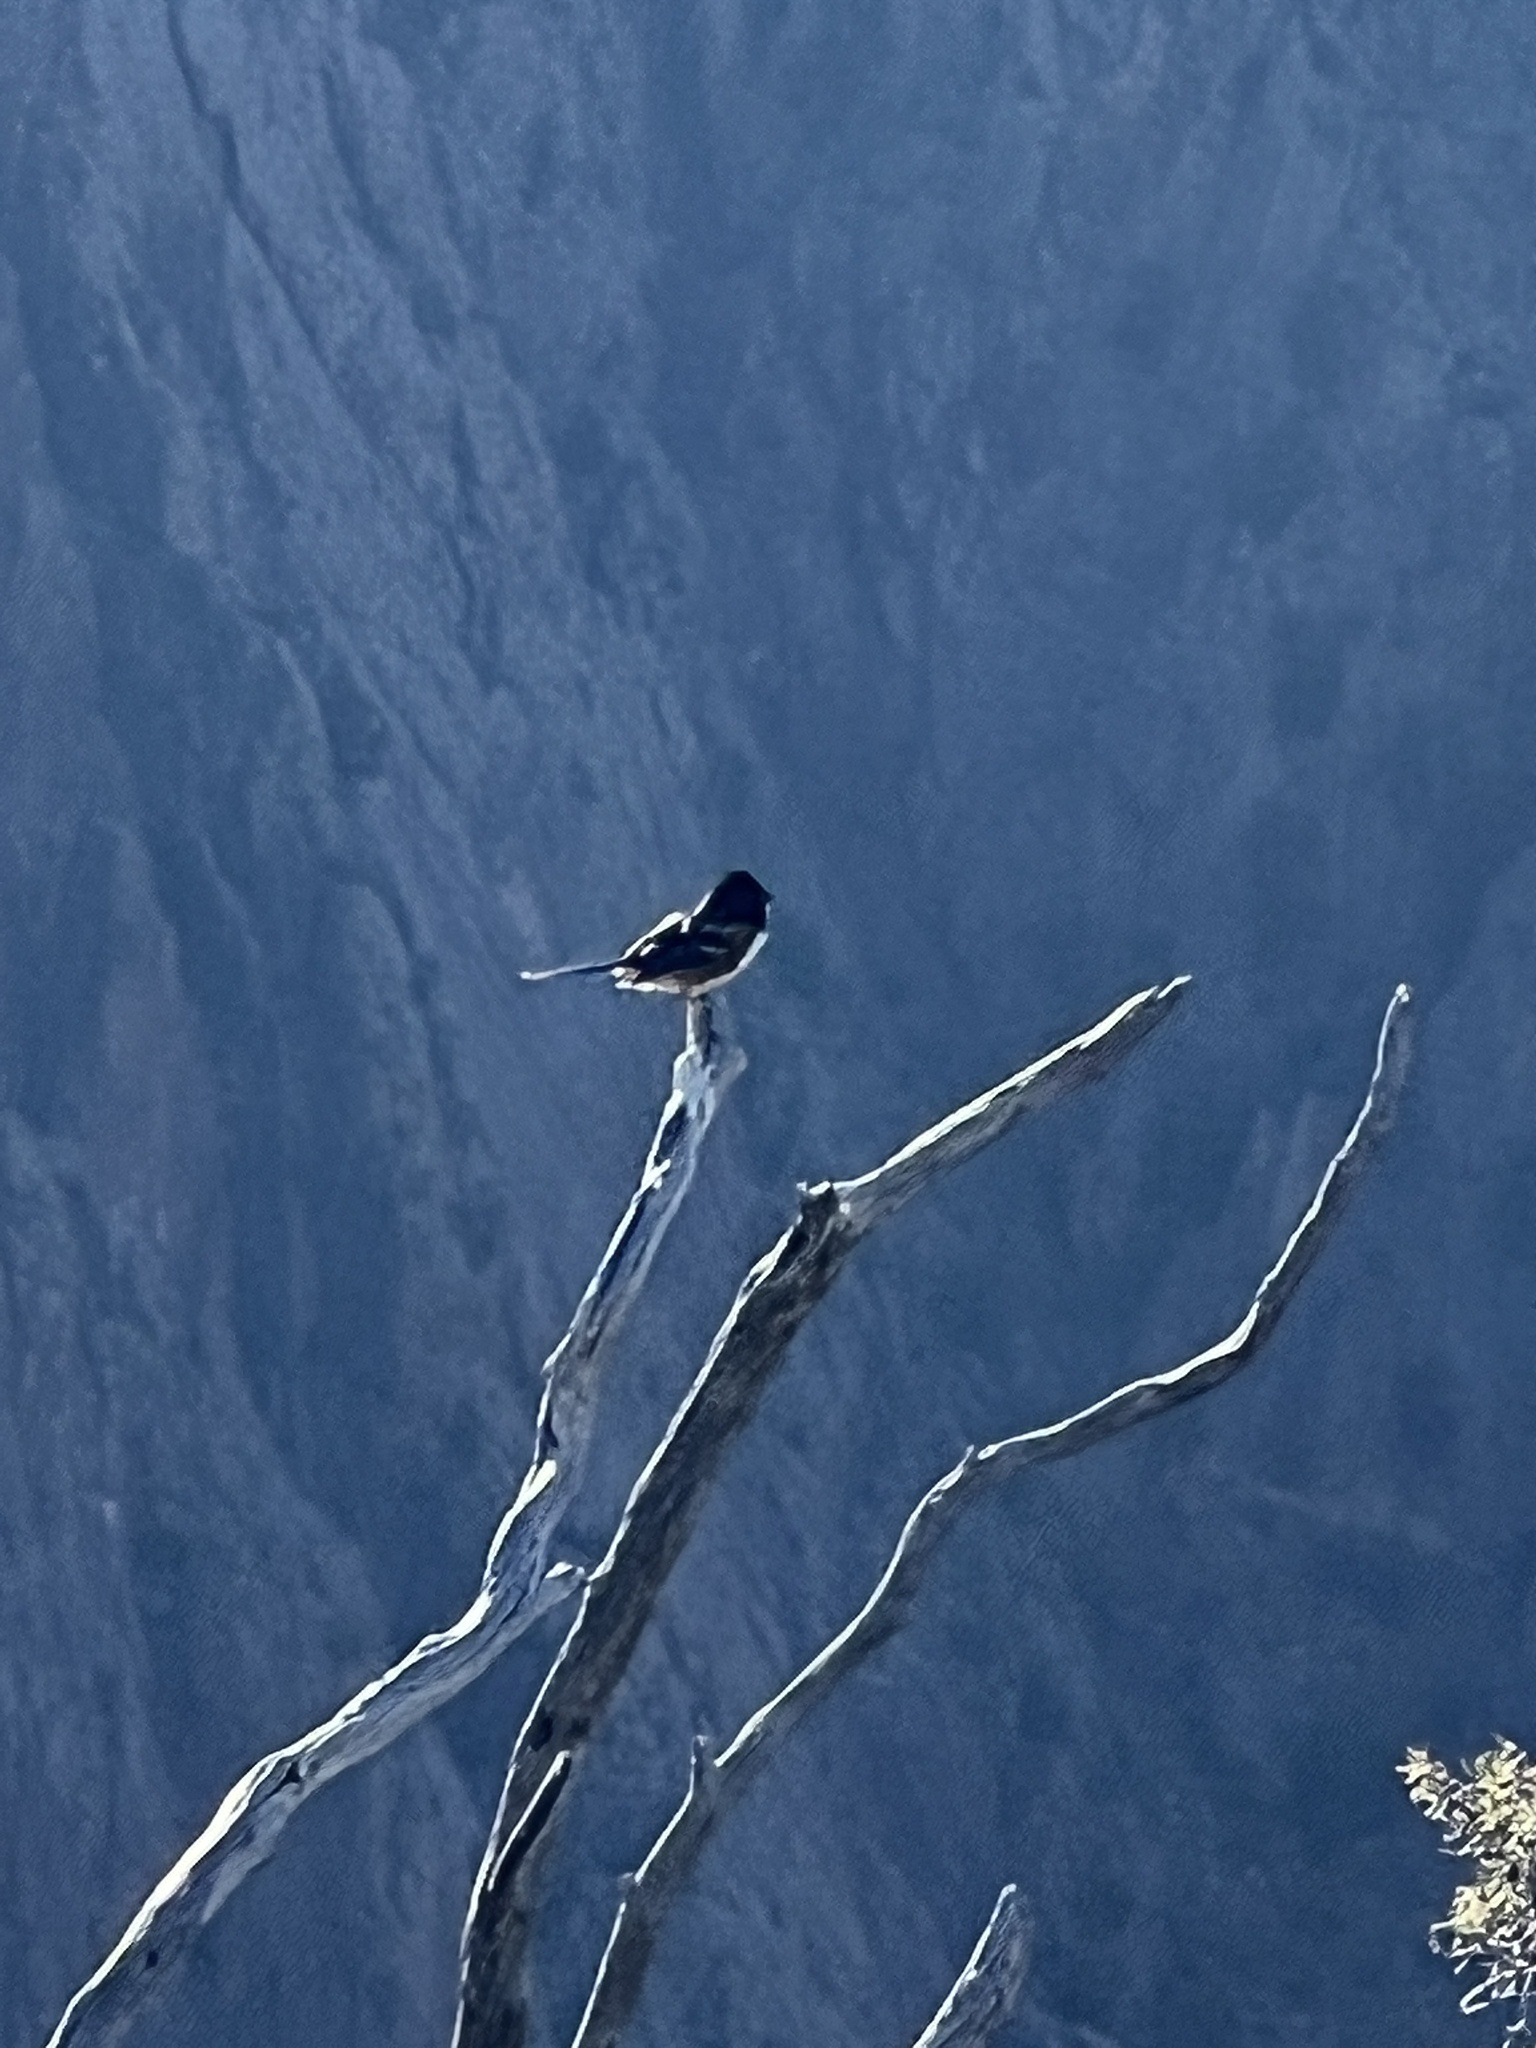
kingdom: Animalia
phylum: Chordata
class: Aves
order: Passeriformes
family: Passerellidae
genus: Pipilo
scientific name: Pipilo maculatus
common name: Spotted towhee
